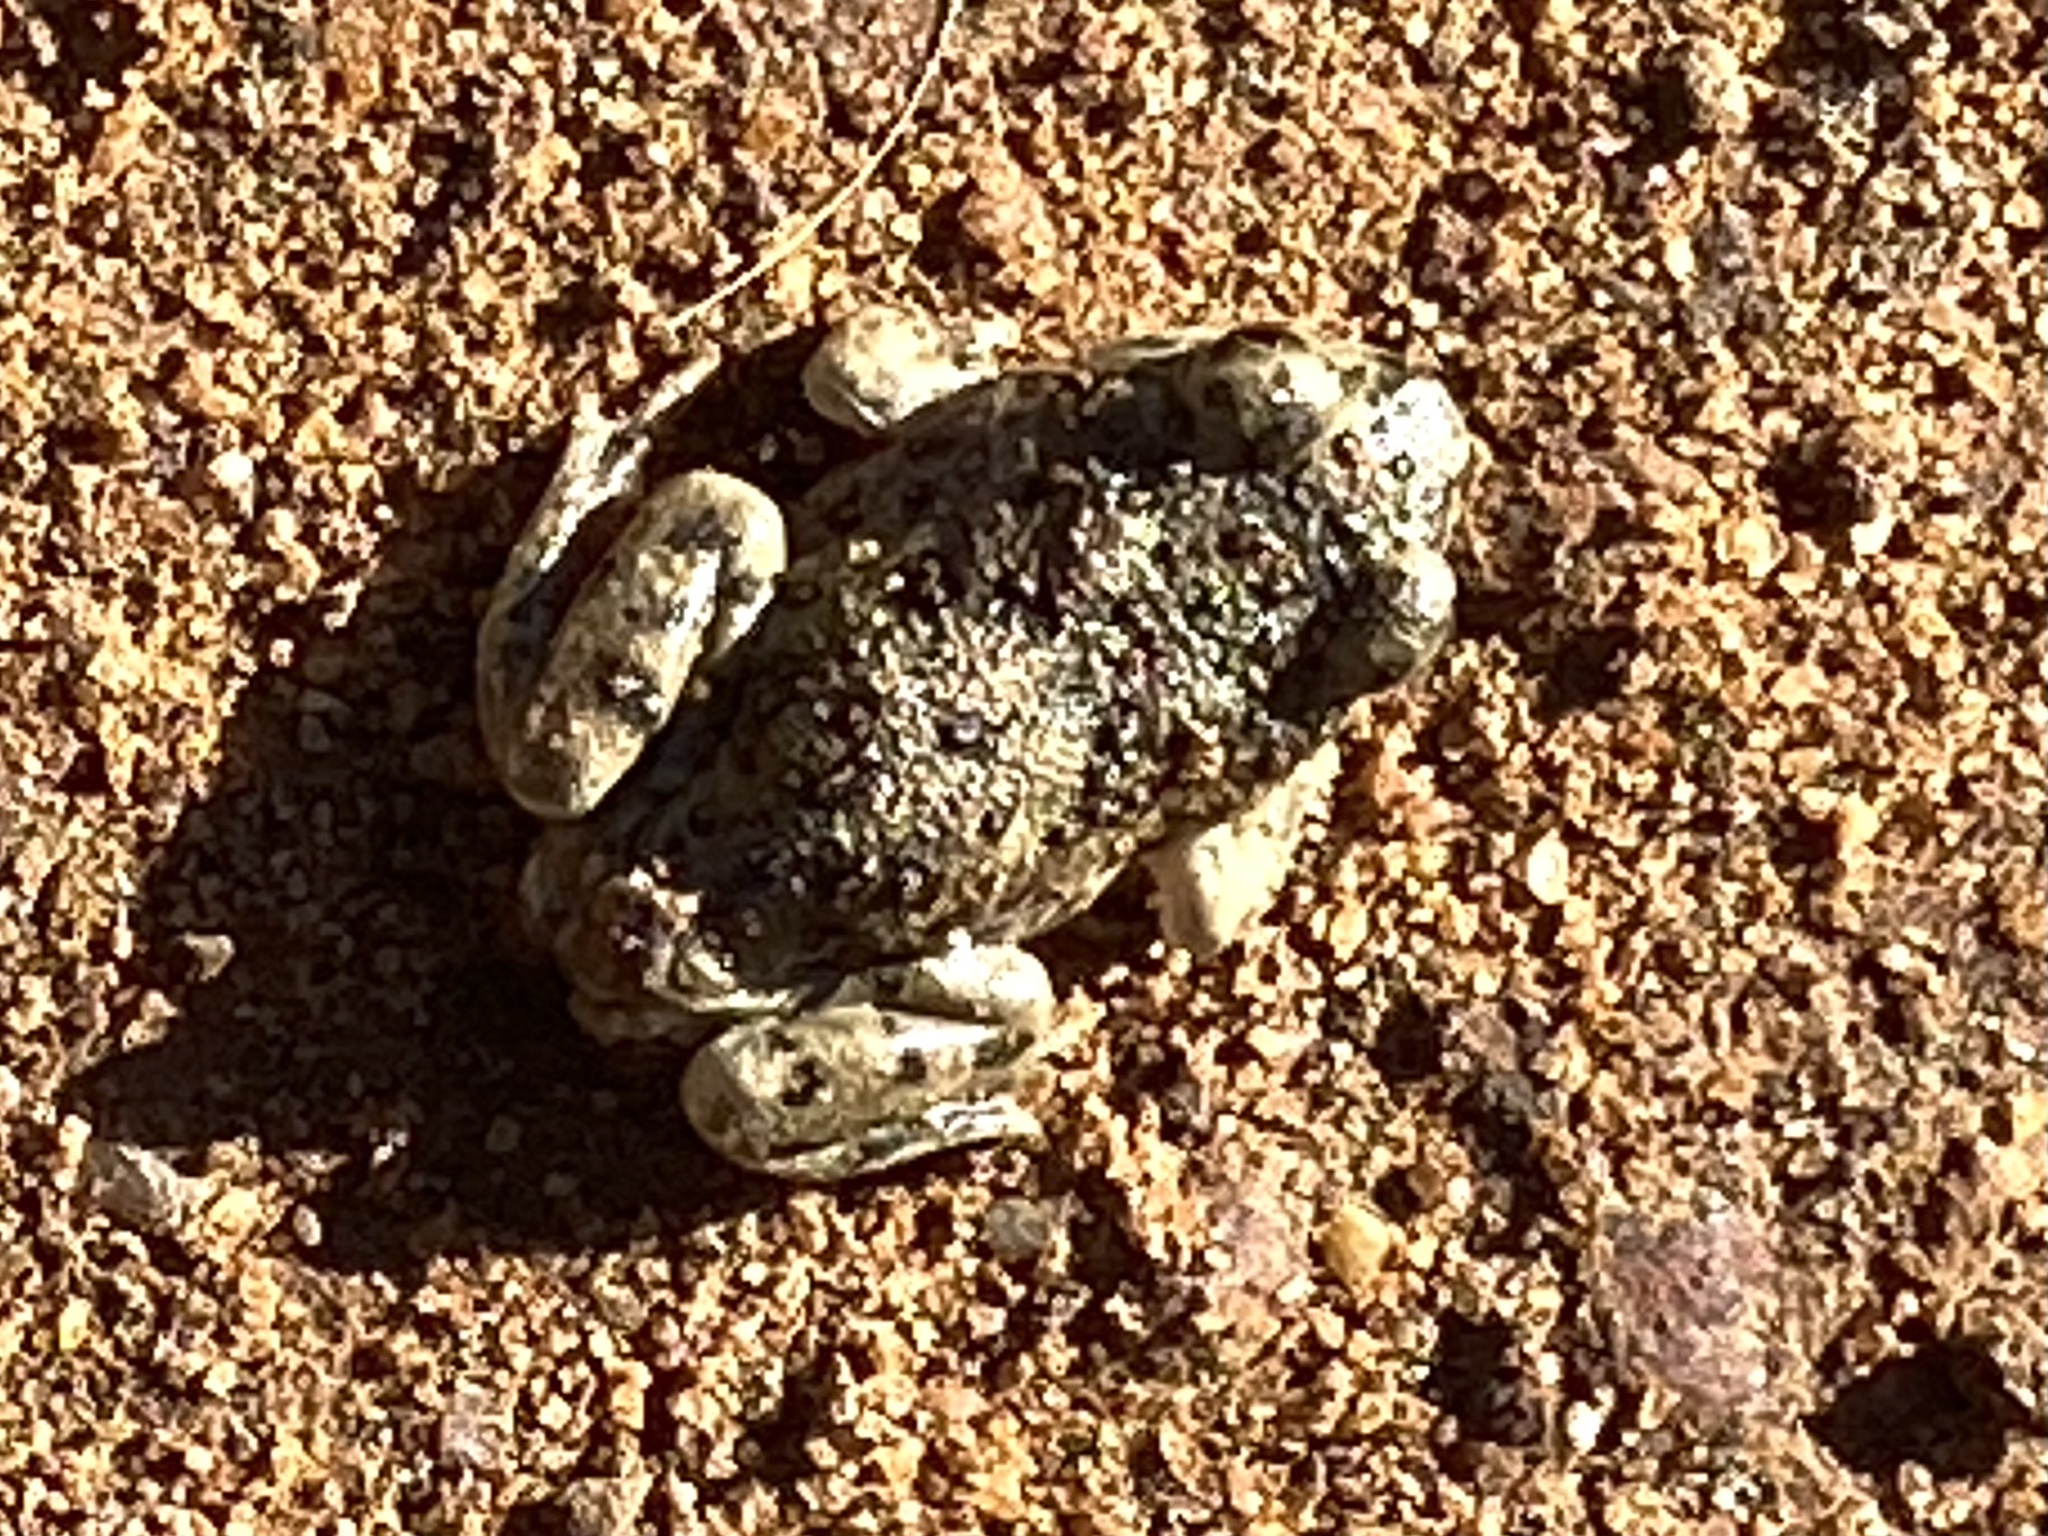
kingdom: Animalia
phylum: Chordata
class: Amphibia
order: Anura
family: Scaphiopodidae
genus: Spea
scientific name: Spea hammondii
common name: Western spadefoot toad
